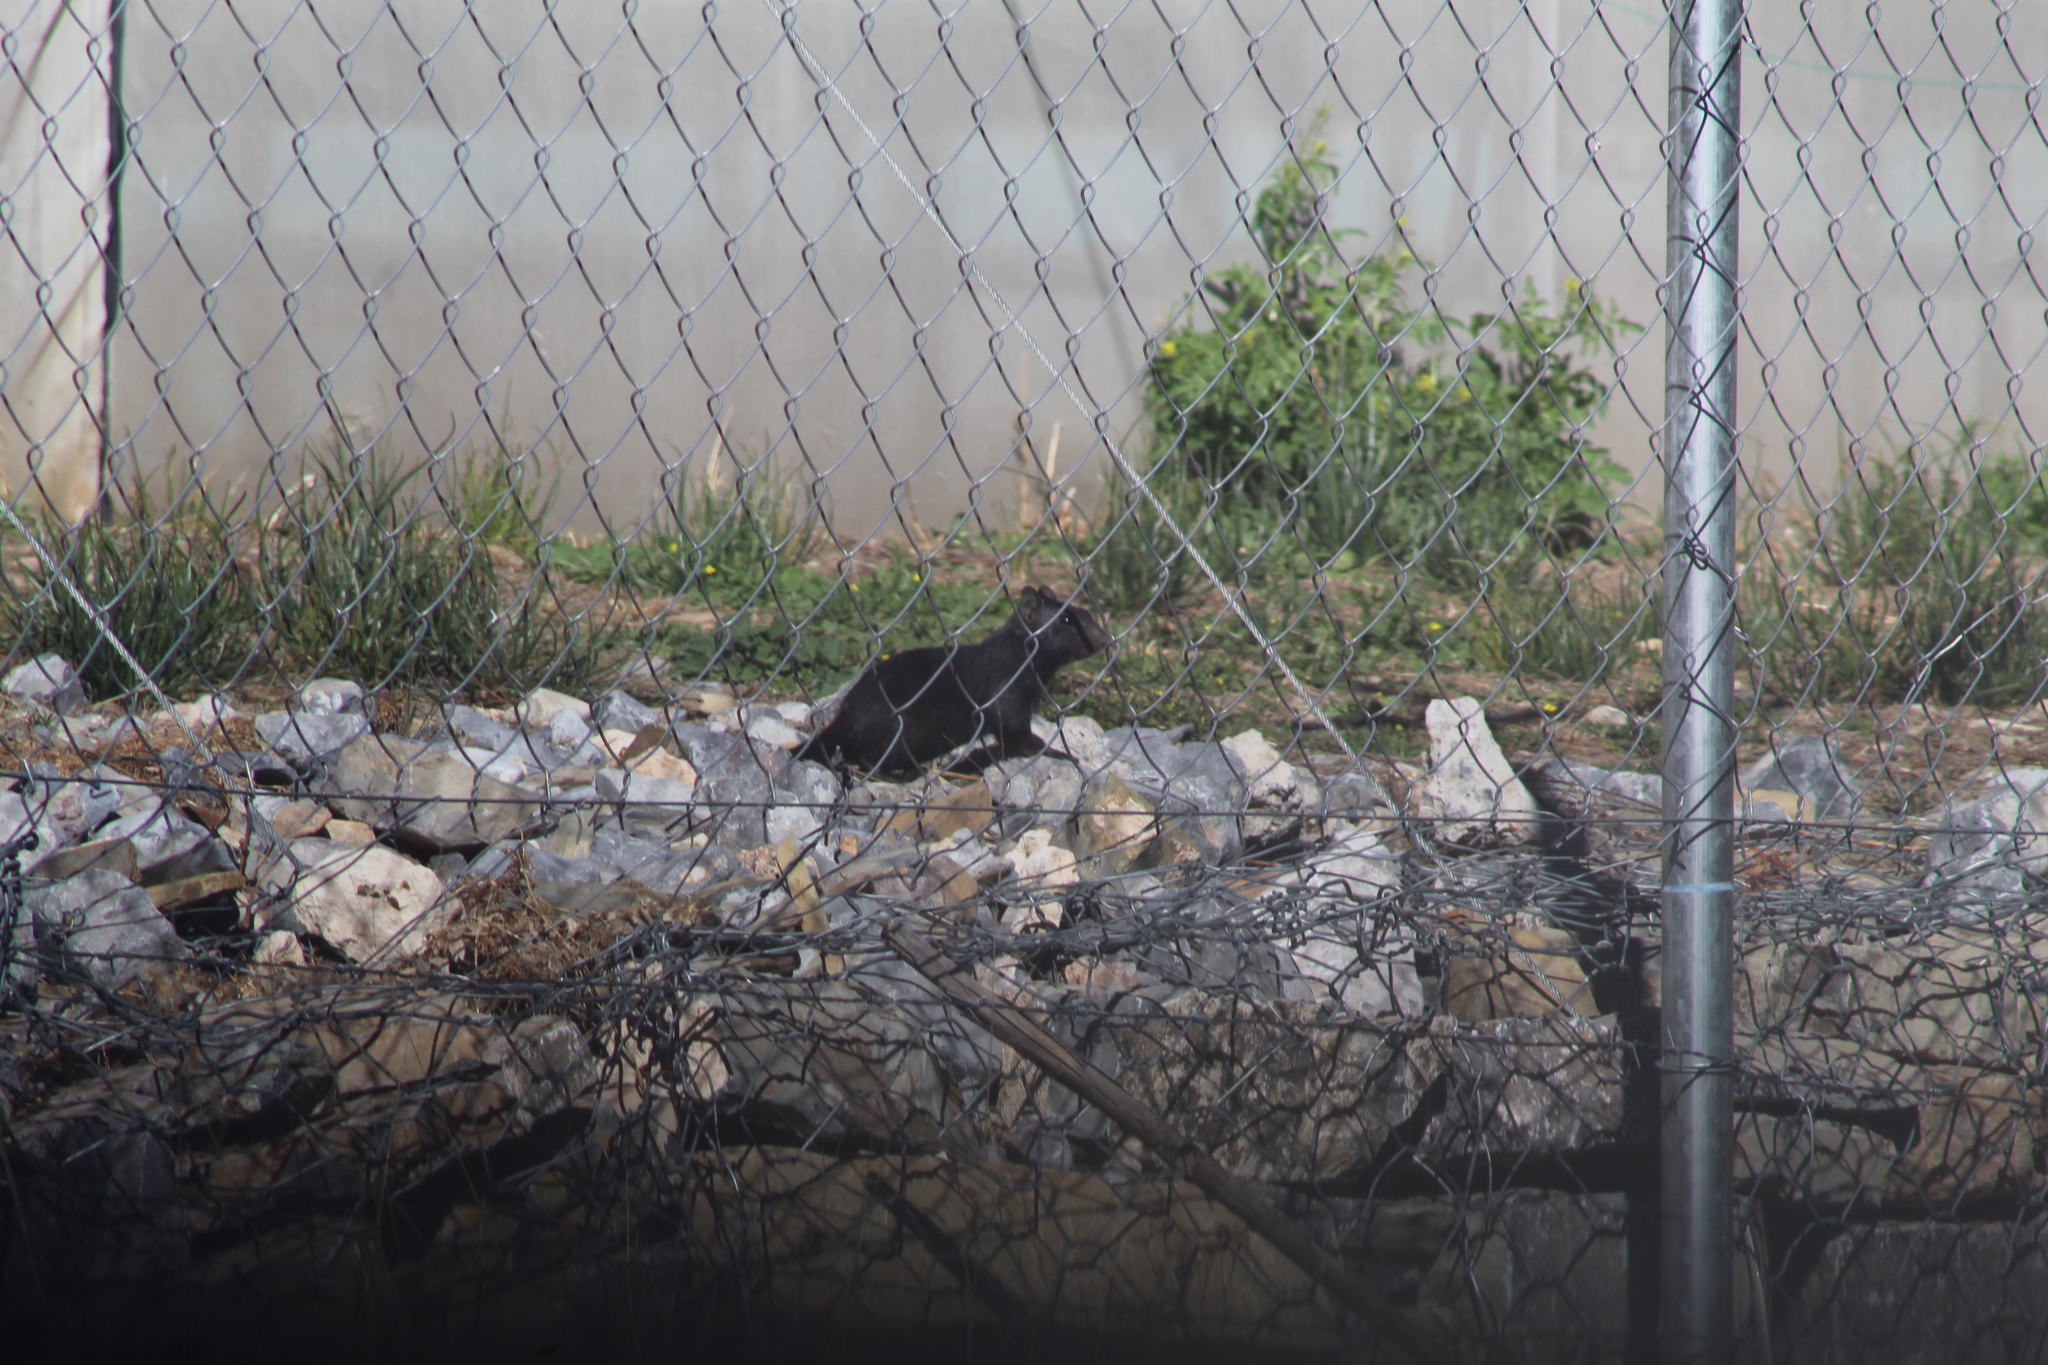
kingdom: Animalia
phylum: Chordata
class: Mammalia
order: Rodentia
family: Sciuridae
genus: Otospermophilus
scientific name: Otospermophilus variegatus
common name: Rock squirrel
